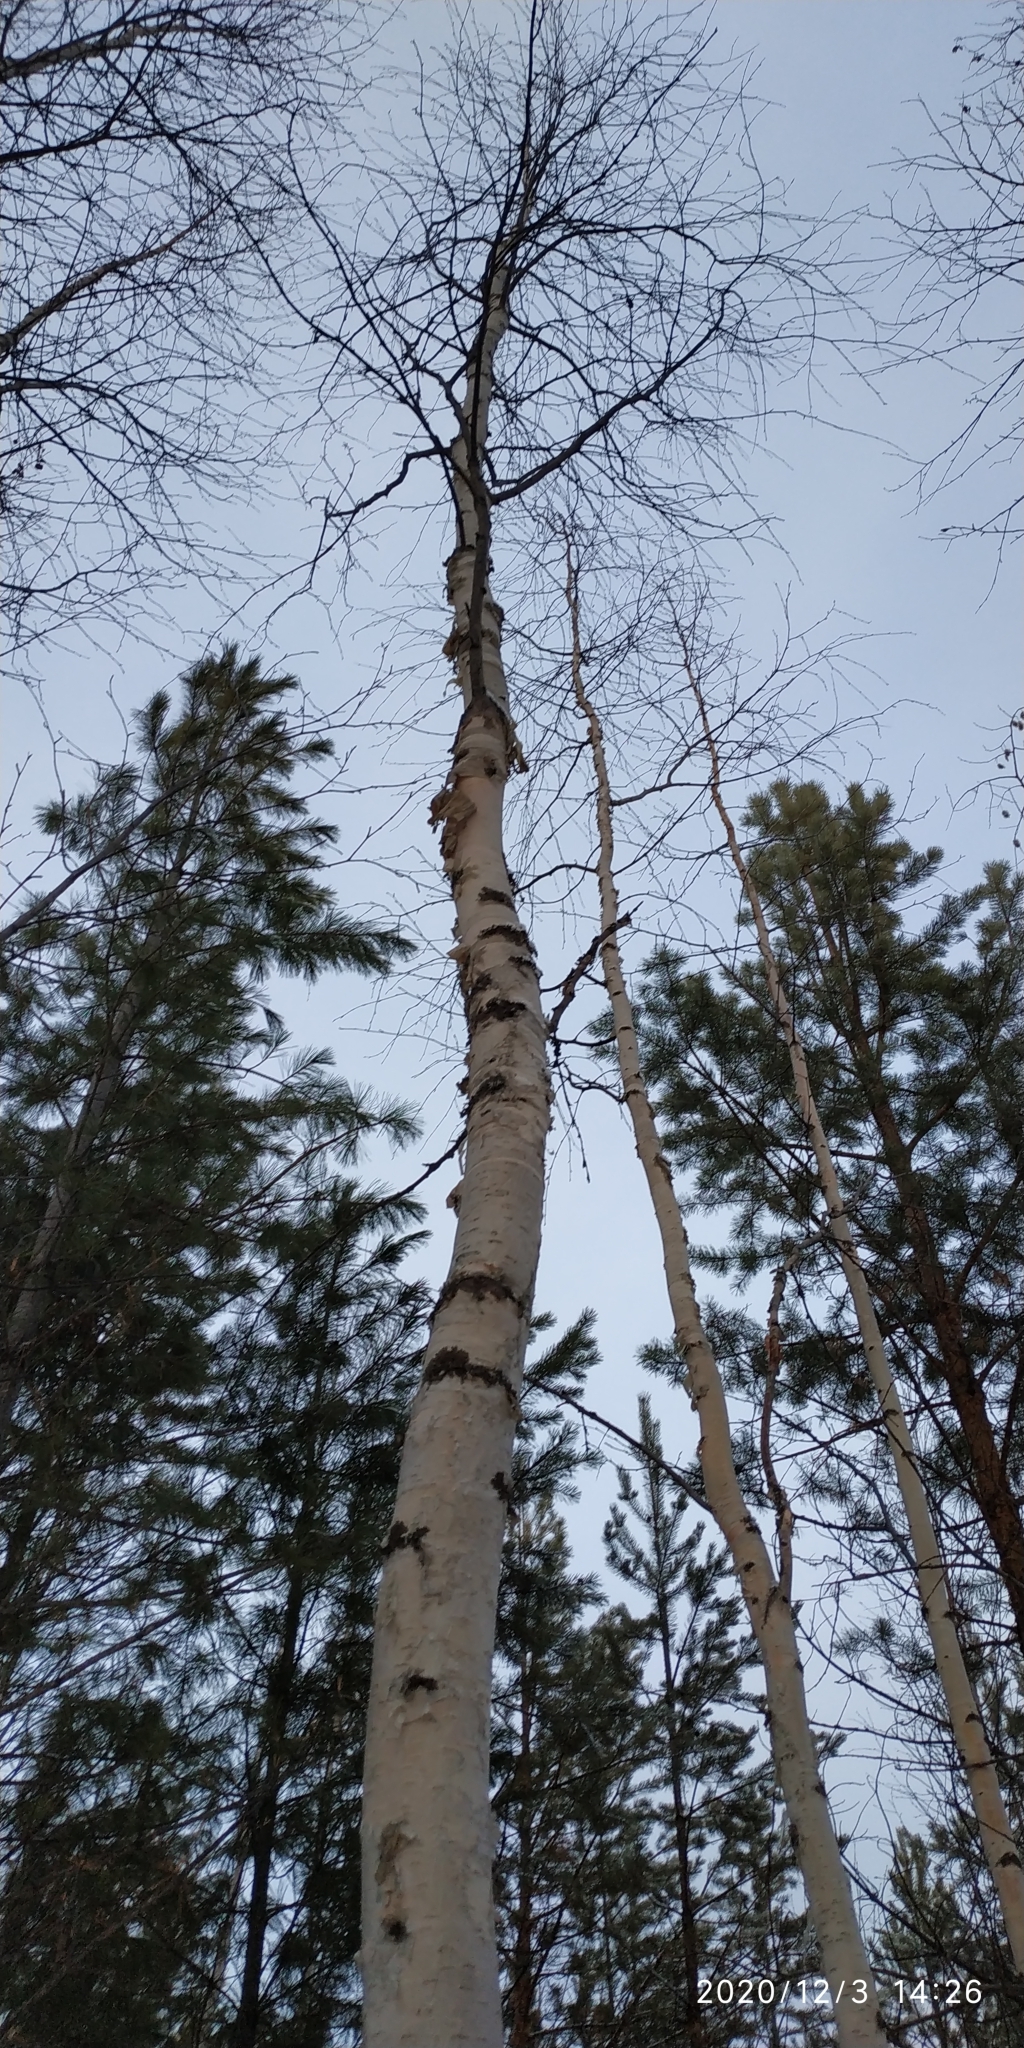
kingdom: Plantae
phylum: Tracheophyta
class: Magnoliopsida
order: Fagales
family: Betulaceae
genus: Betula
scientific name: Betula pubescens
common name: Downy birch
